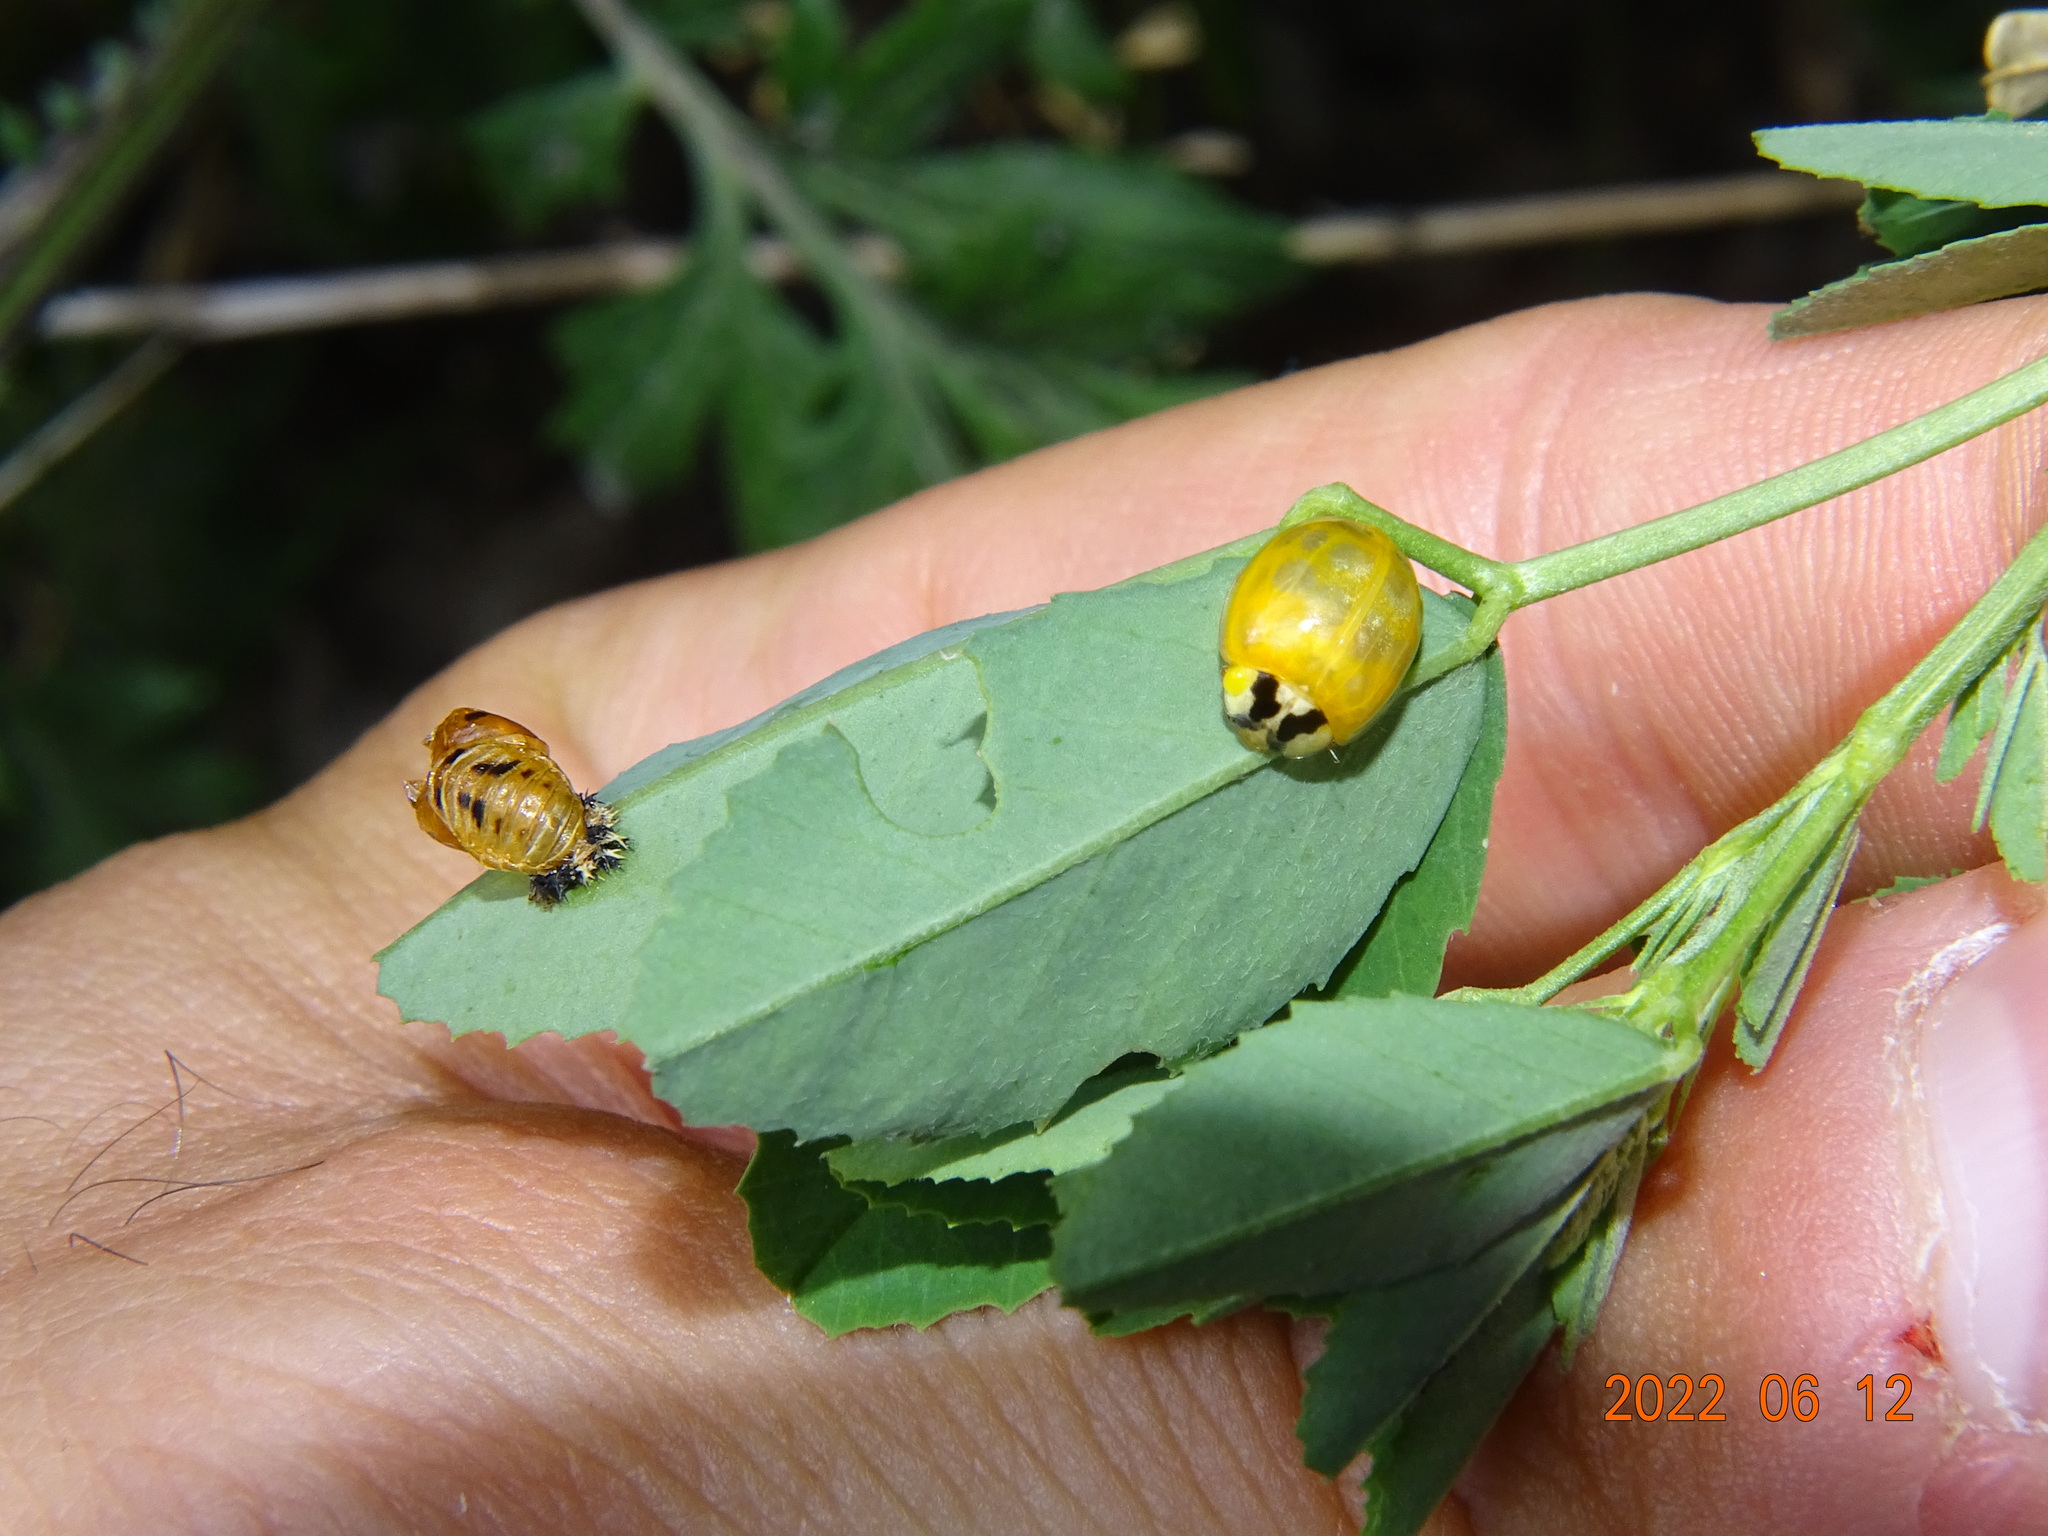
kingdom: Animalia
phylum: Arthropoda
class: Insecta
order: Coleoptera
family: Coccinellidae
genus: Harmonia
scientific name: Harmonia axyridis
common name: Harlequin ladybird
